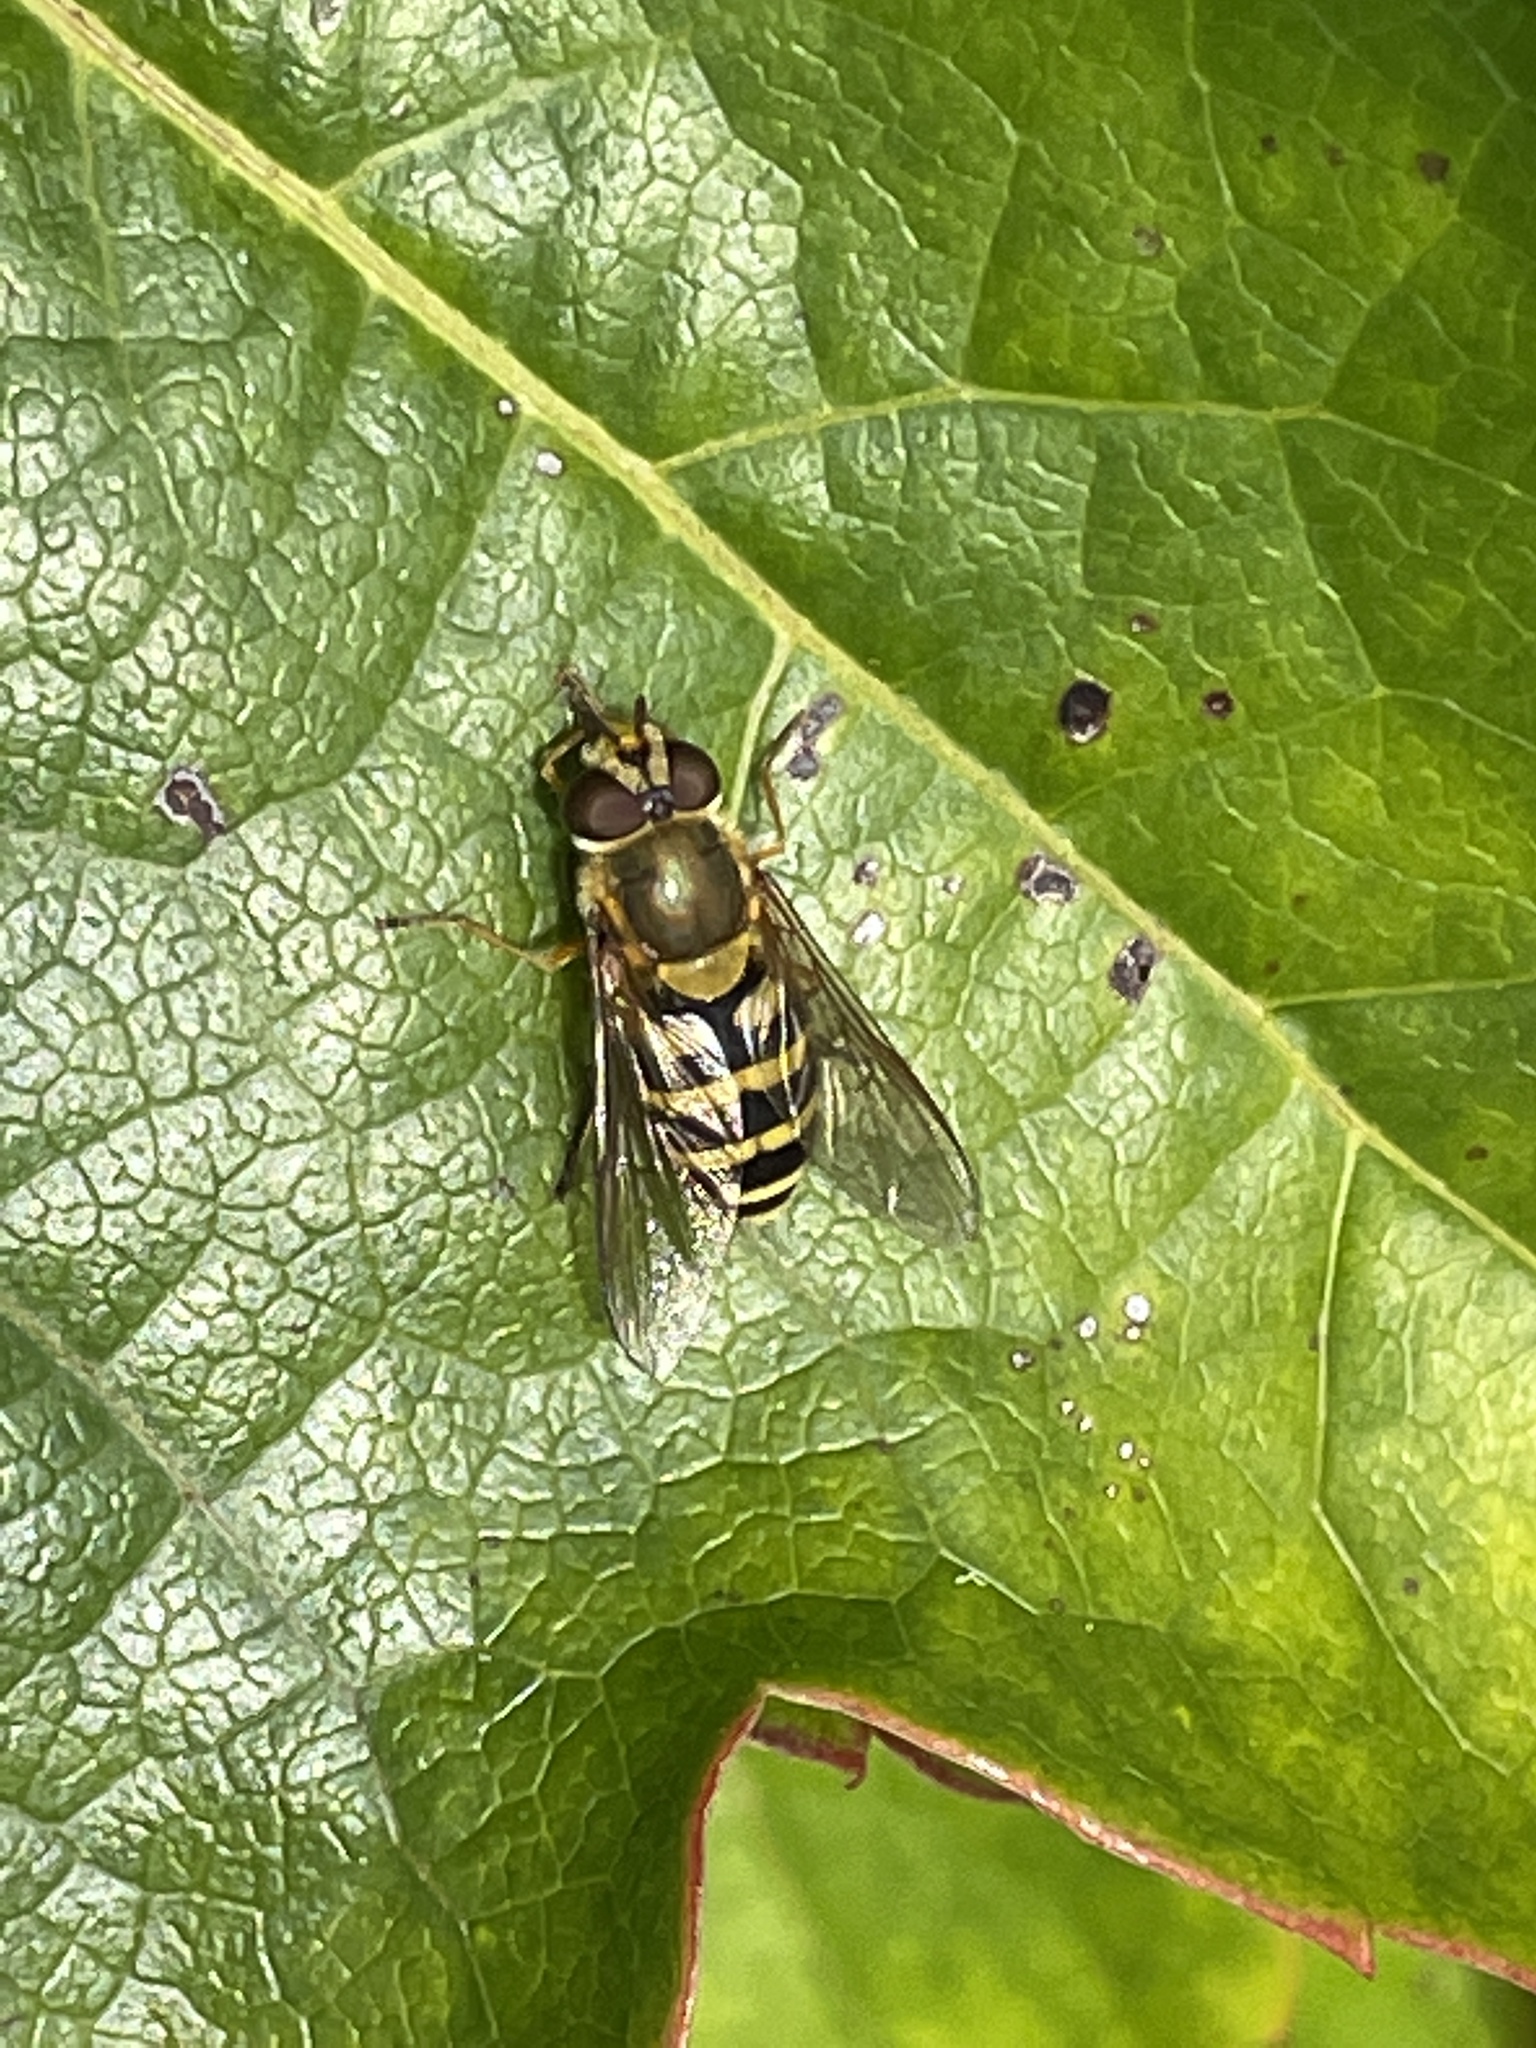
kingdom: Animalia
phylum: Arthropoda
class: Insecta
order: Diptera
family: Syrphidae
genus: Syrphus
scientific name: Syrphus
